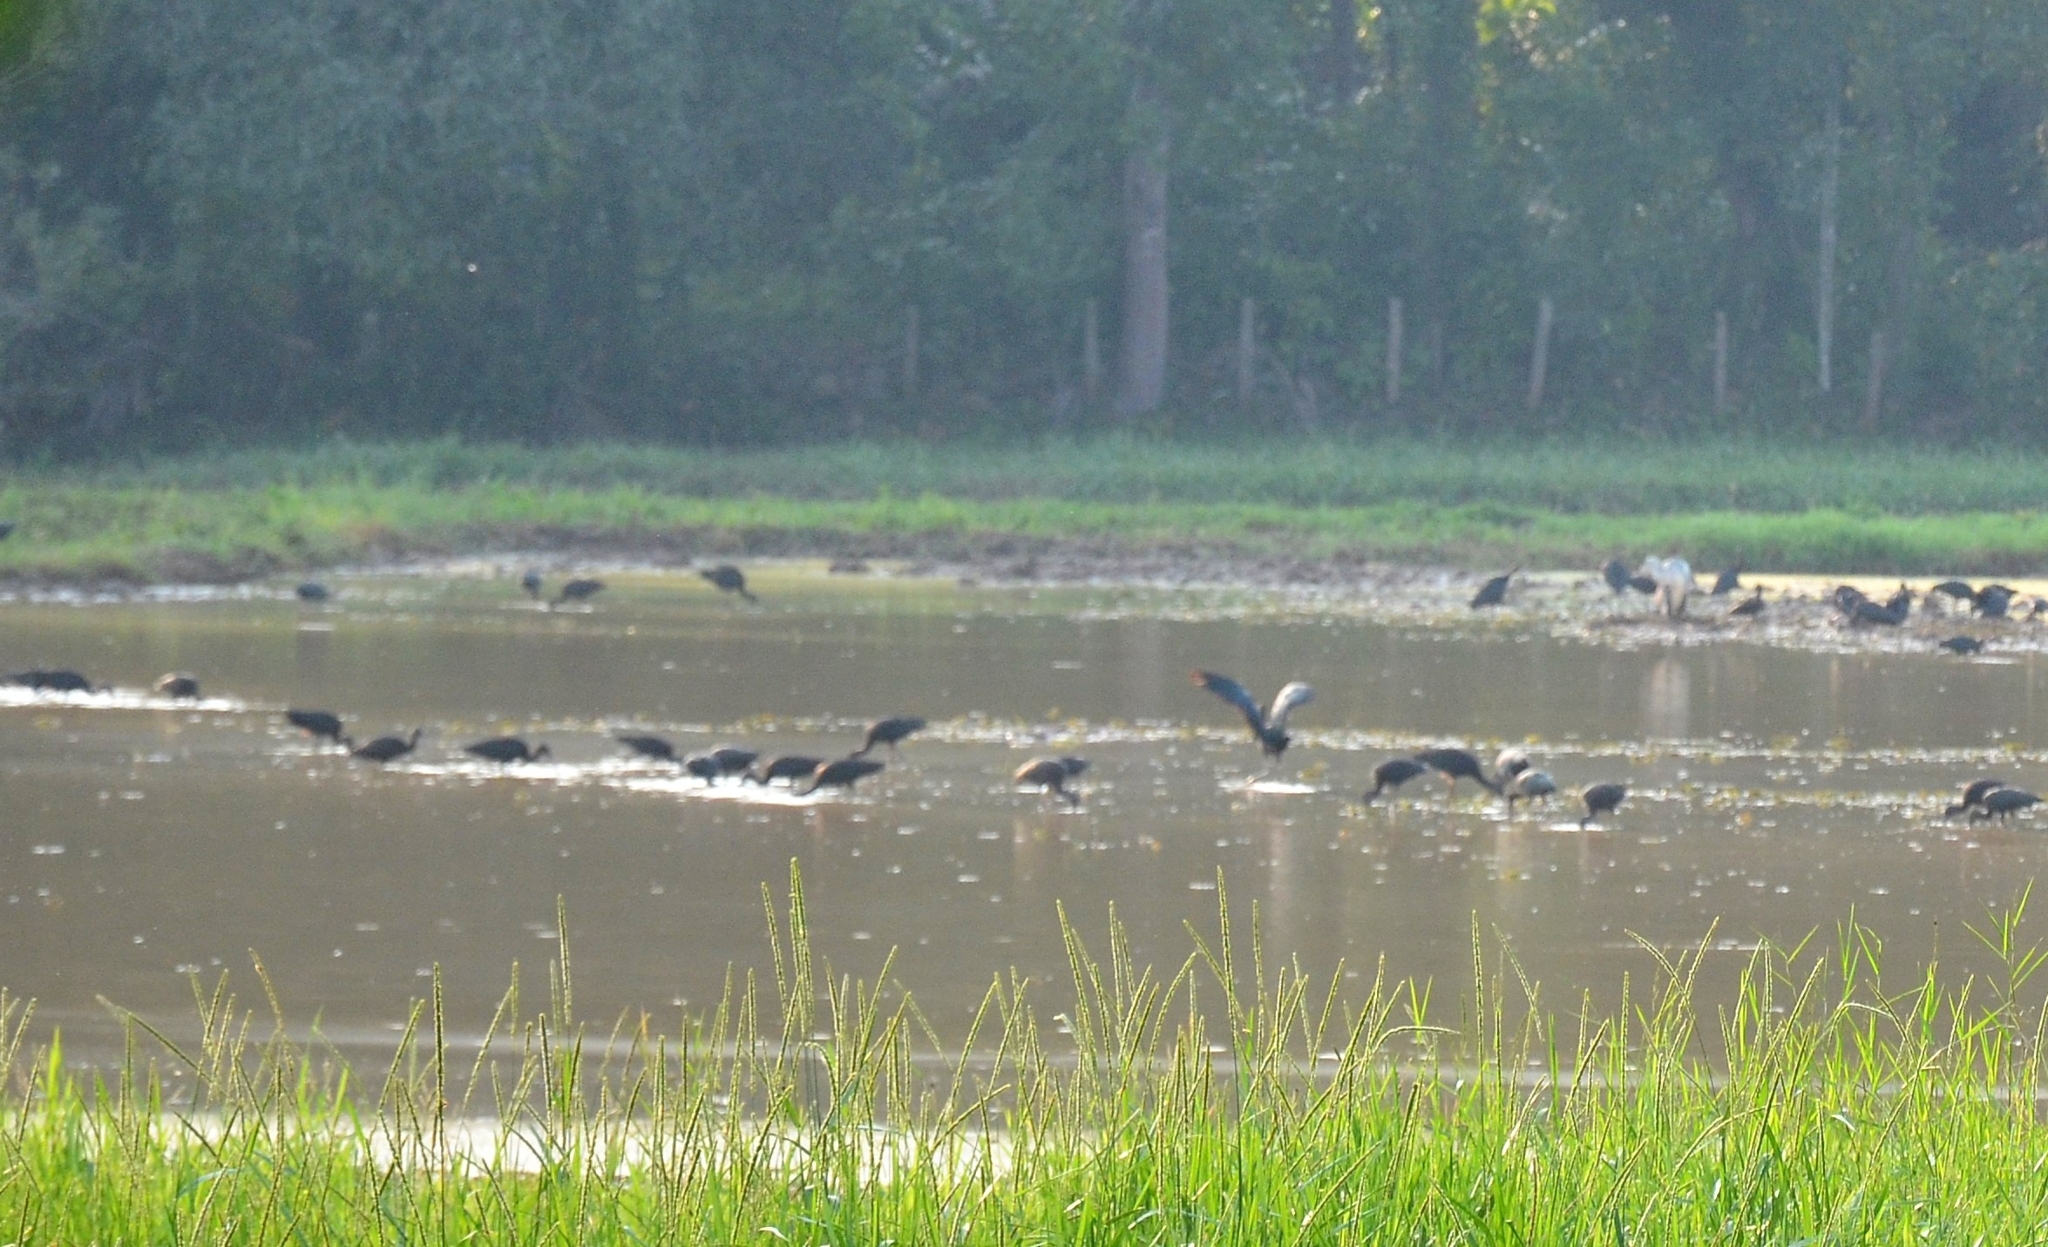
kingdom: Animalia
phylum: Chordata
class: Aves
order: Pelecaniformes
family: Threskiornithidae
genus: Plegadis
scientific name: Plegadis falcinellus
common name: Glossy ibis
